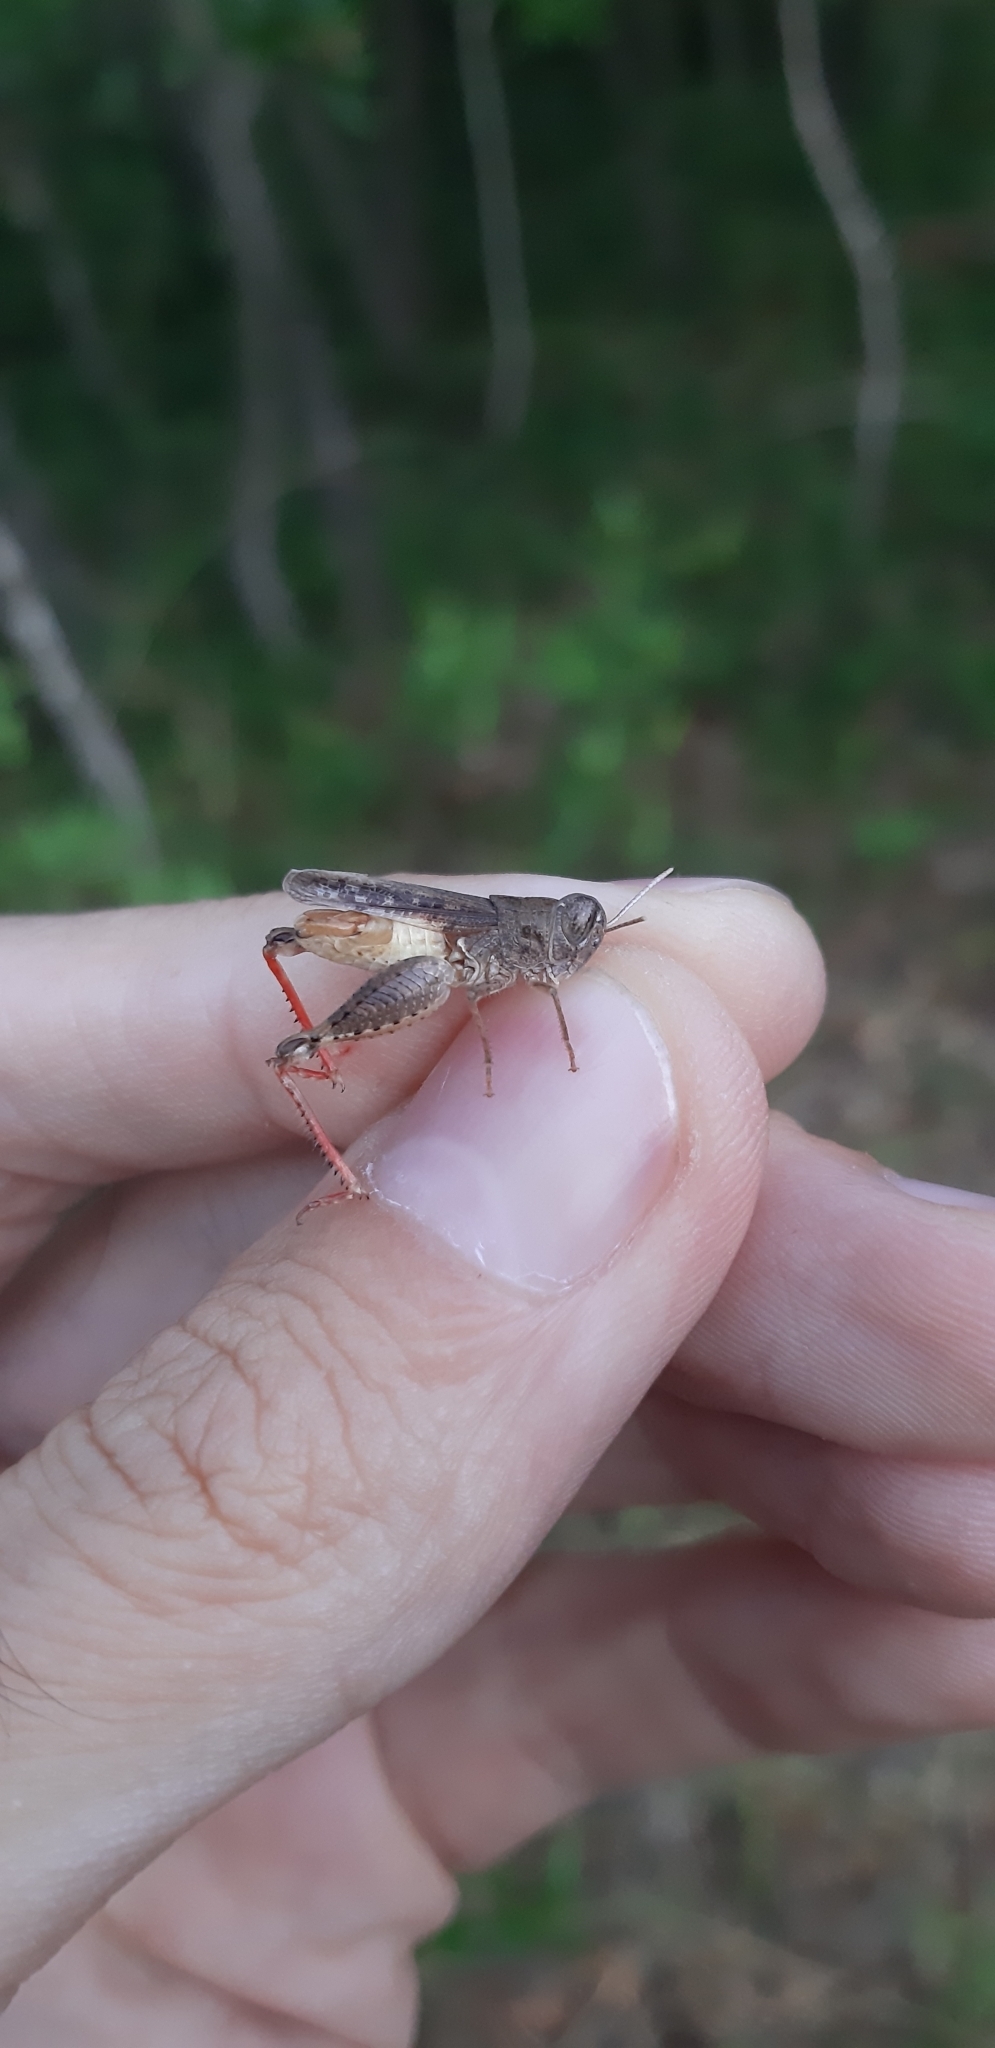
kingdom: Animalia
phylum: Arthropoda
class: Insecta
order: Orthoptera
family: Acrididae
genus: Calliptamus
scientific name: Calliptamus siciliae
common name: Pygmy pincer grasshopper
